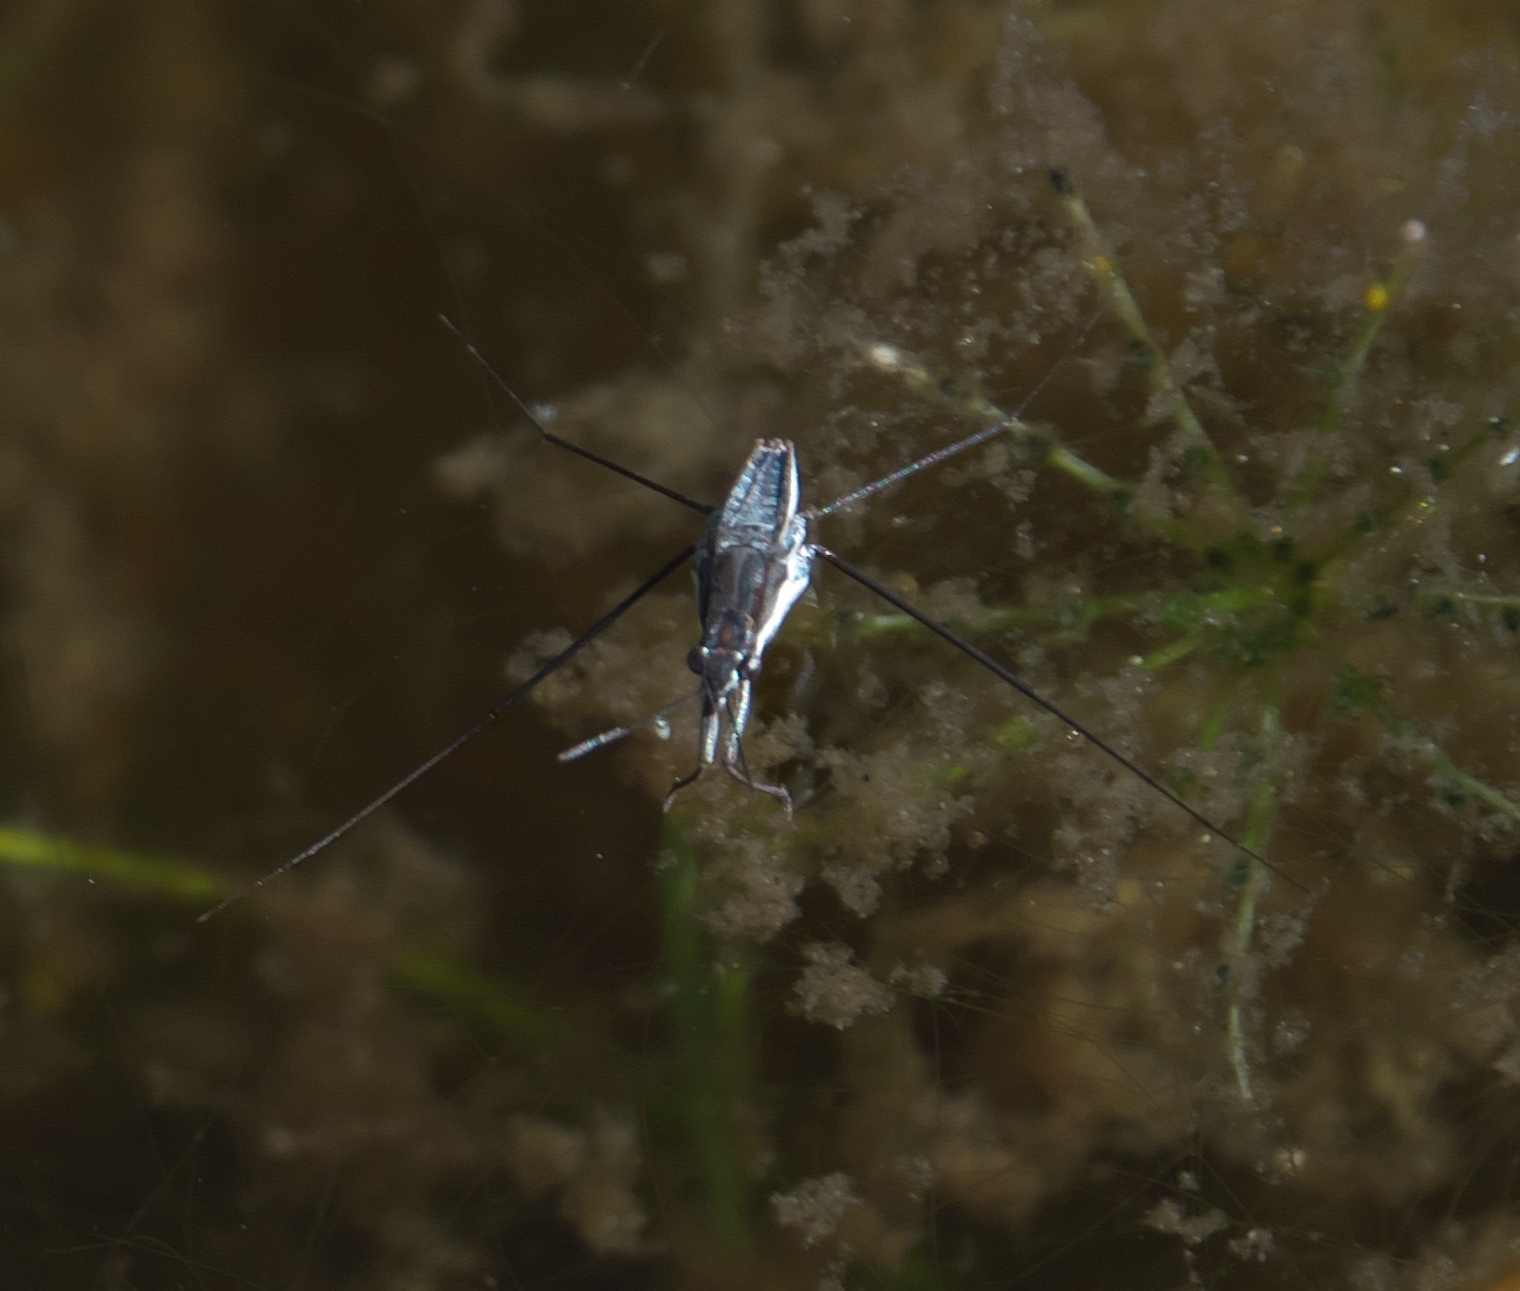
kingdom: Animalia
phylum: Arthropoda
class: Insecta
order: Hemiptera
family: Gerridae
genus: Neogerris
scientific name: Neogerris hesione
